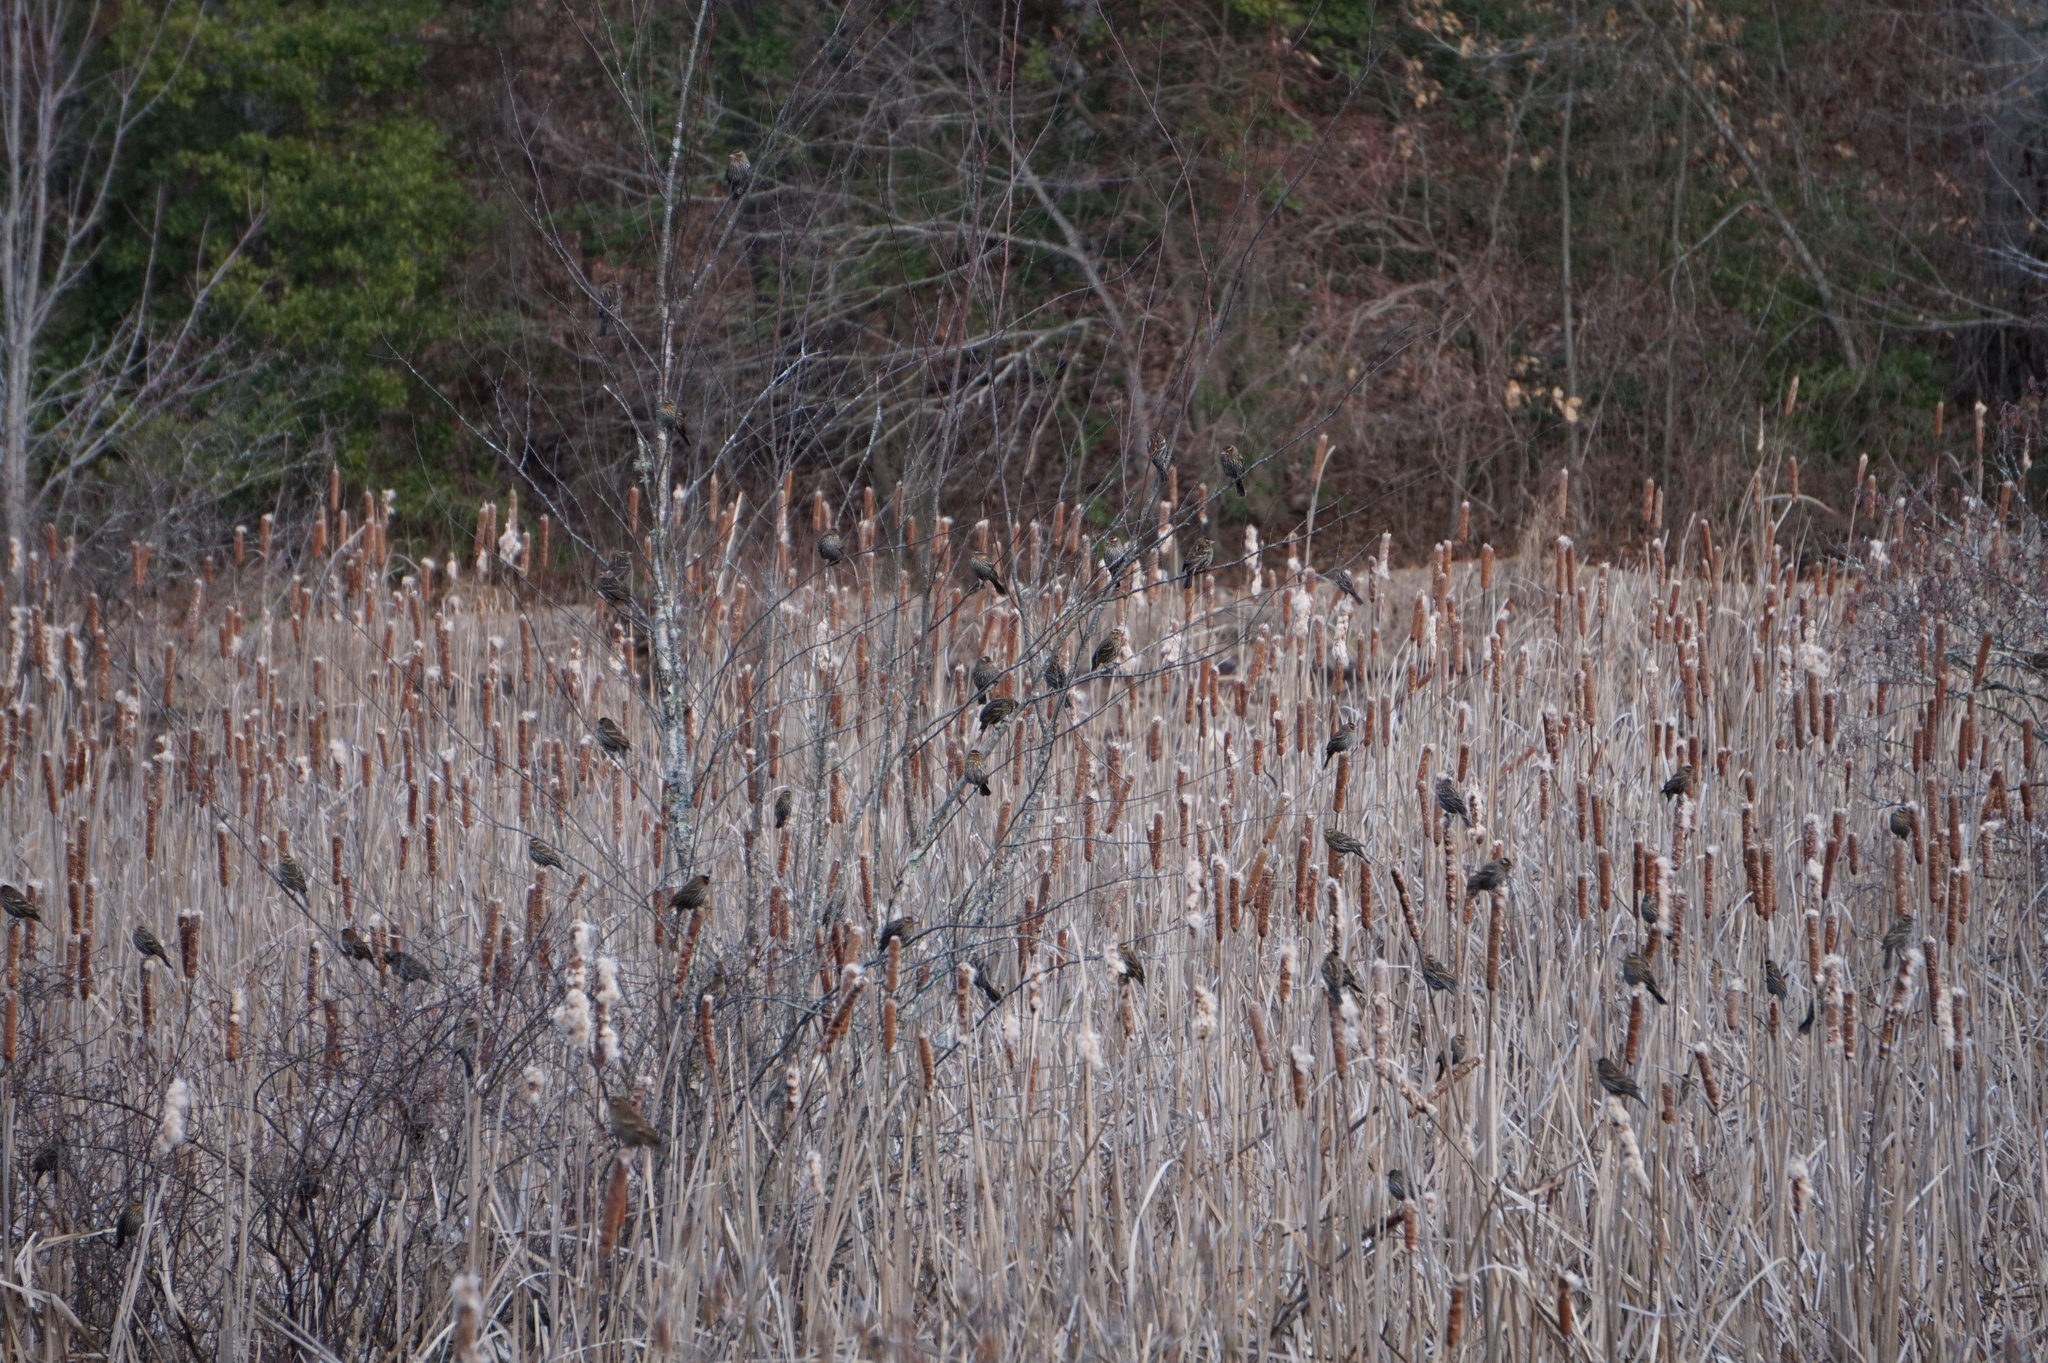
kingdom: Animalia
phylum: Chordata
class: Aves
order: Passeriformes
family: Icteridae
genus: Agelaius
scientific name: Agelaius phoeniceus
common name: Red-winged blackbird
